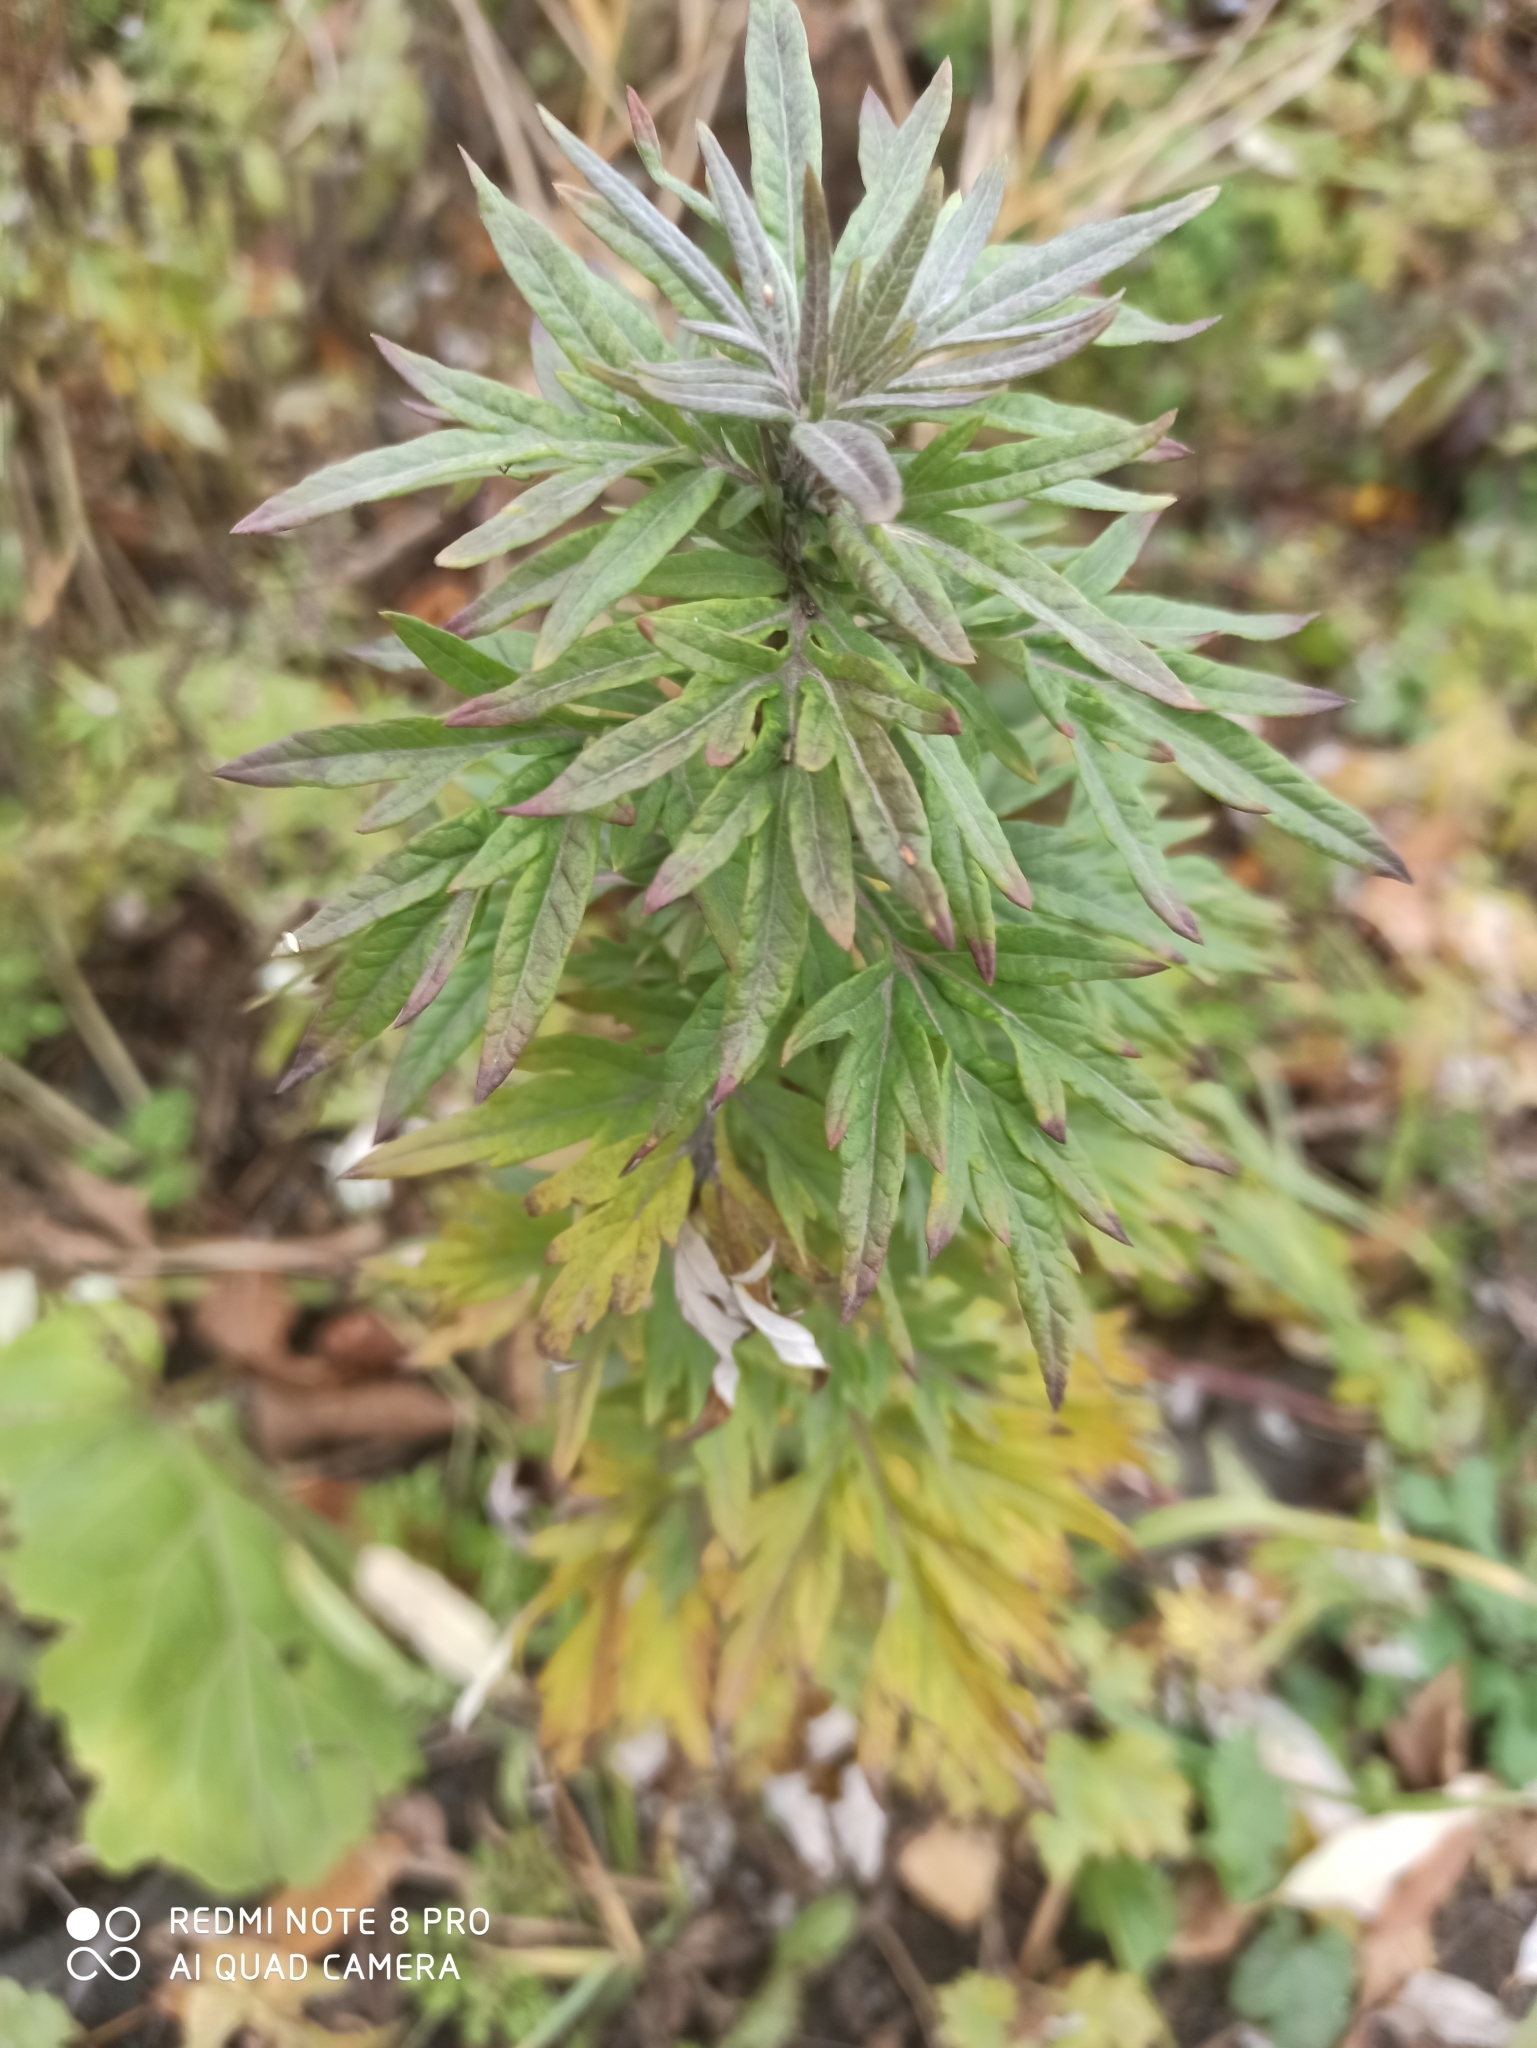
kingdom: Plantae
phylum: Tracheophyta
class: Magnoliopsida
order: Asterales
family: Asteraceae
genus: Artemisia
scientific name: Artemisia vulgaris
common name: Mugwort
